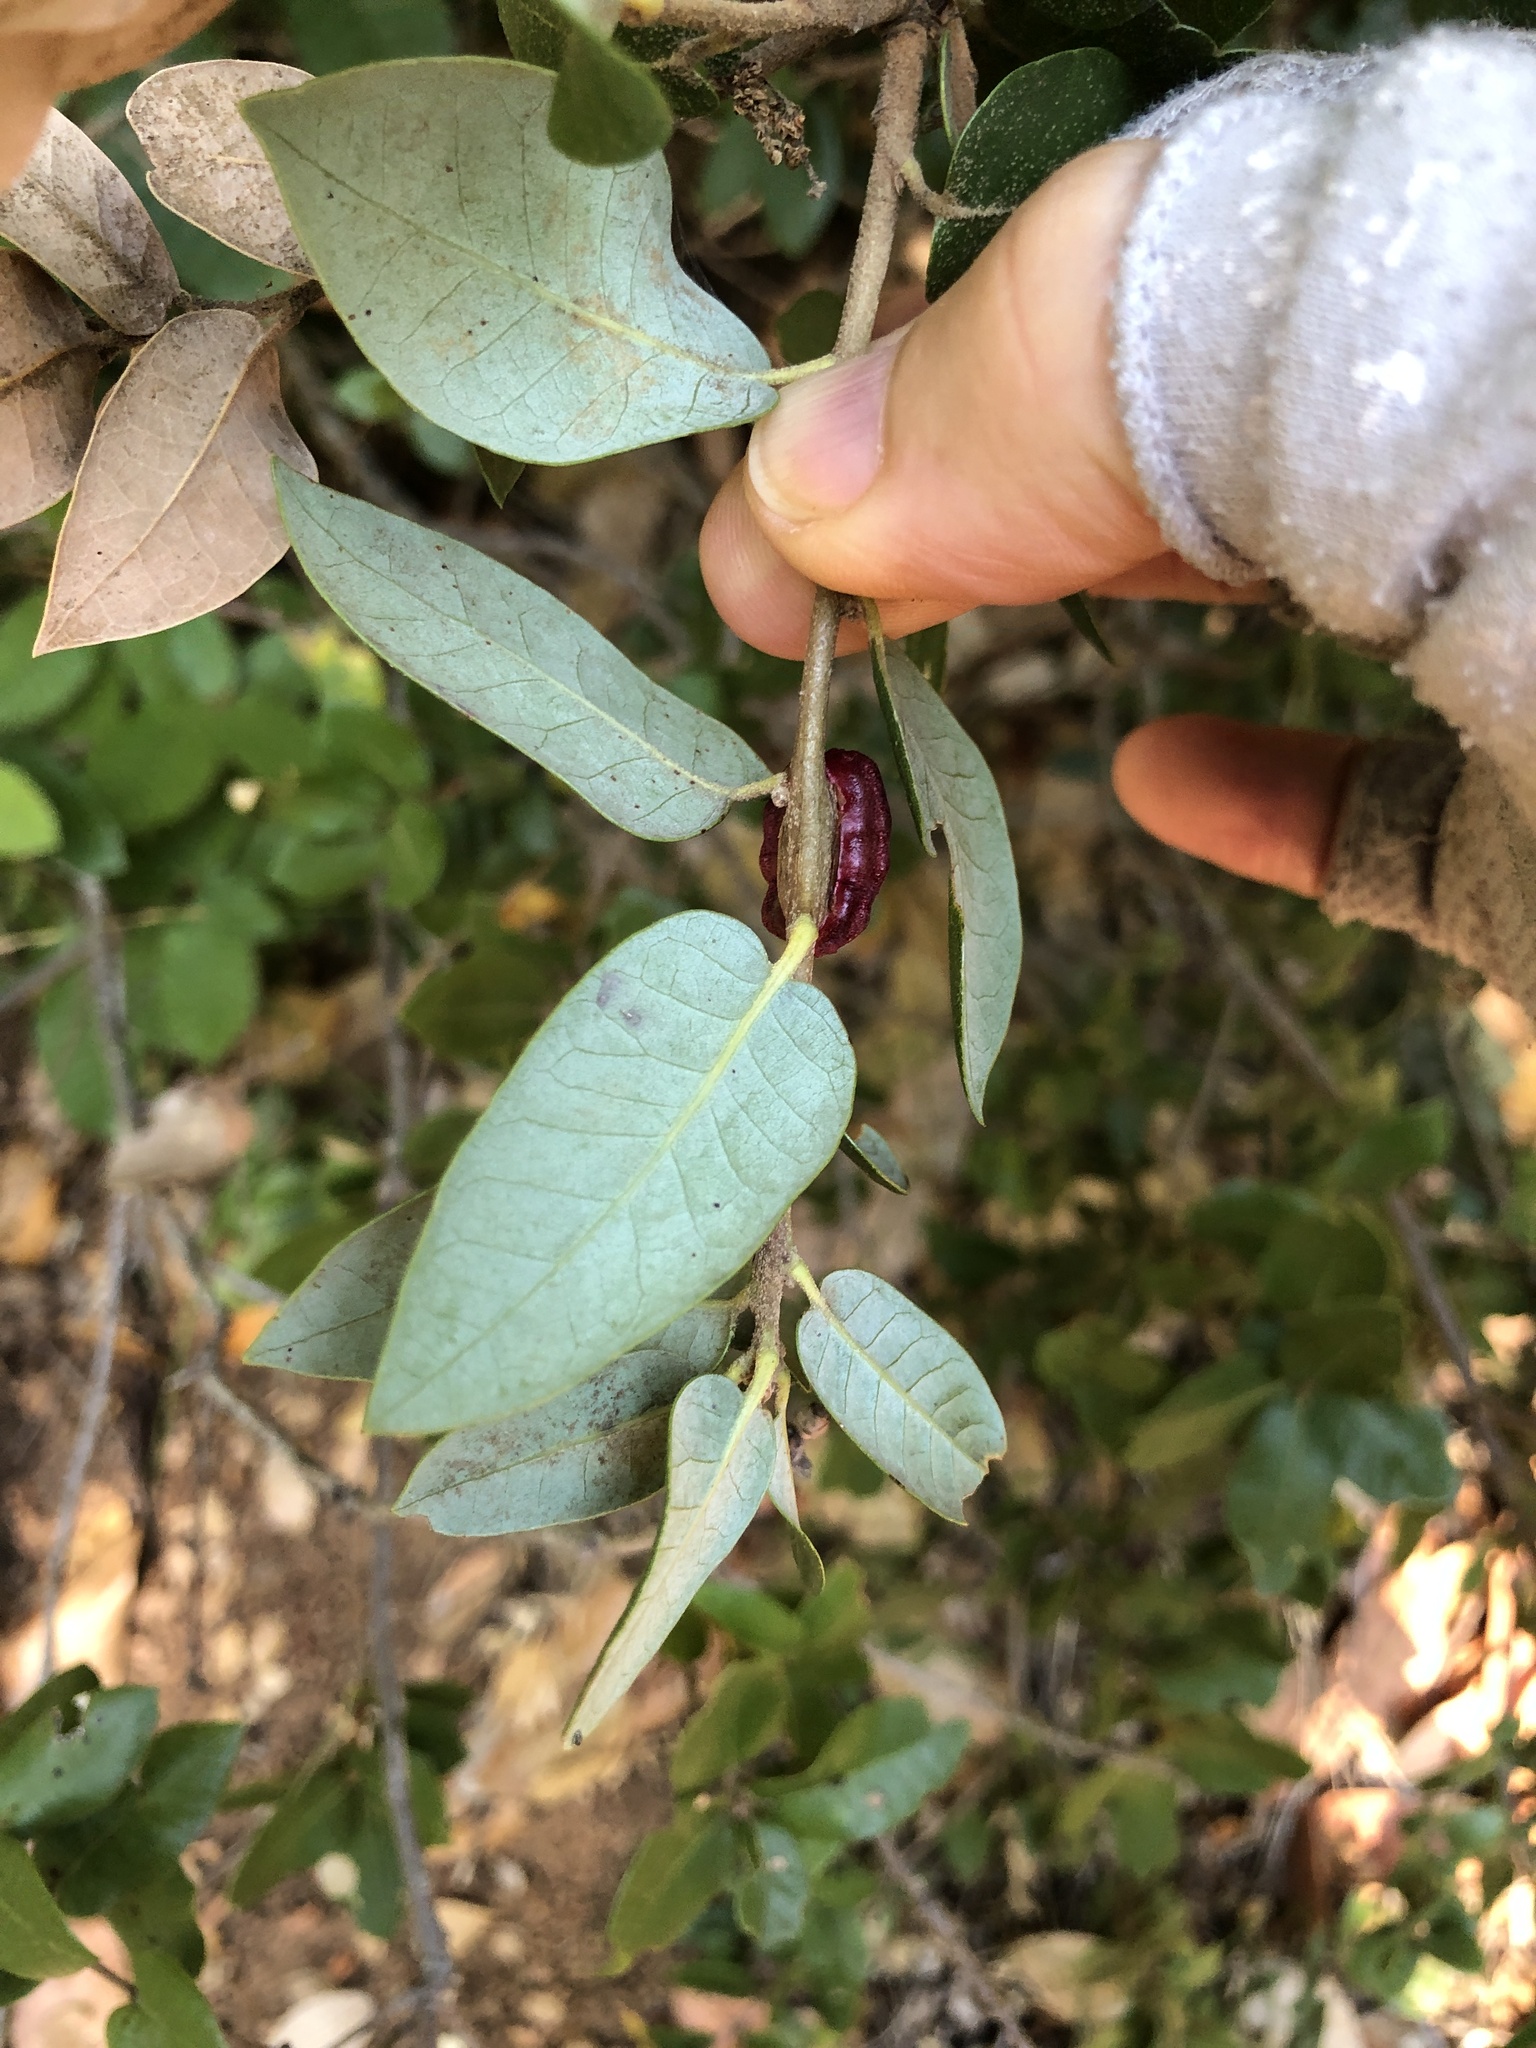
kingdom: Plantae
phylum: Tracheophyta
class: Magnoliopsida
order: Fagales
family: Fagaceae
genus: Quercus
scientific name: Quercus chrysolepis
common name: Canyon live oak
